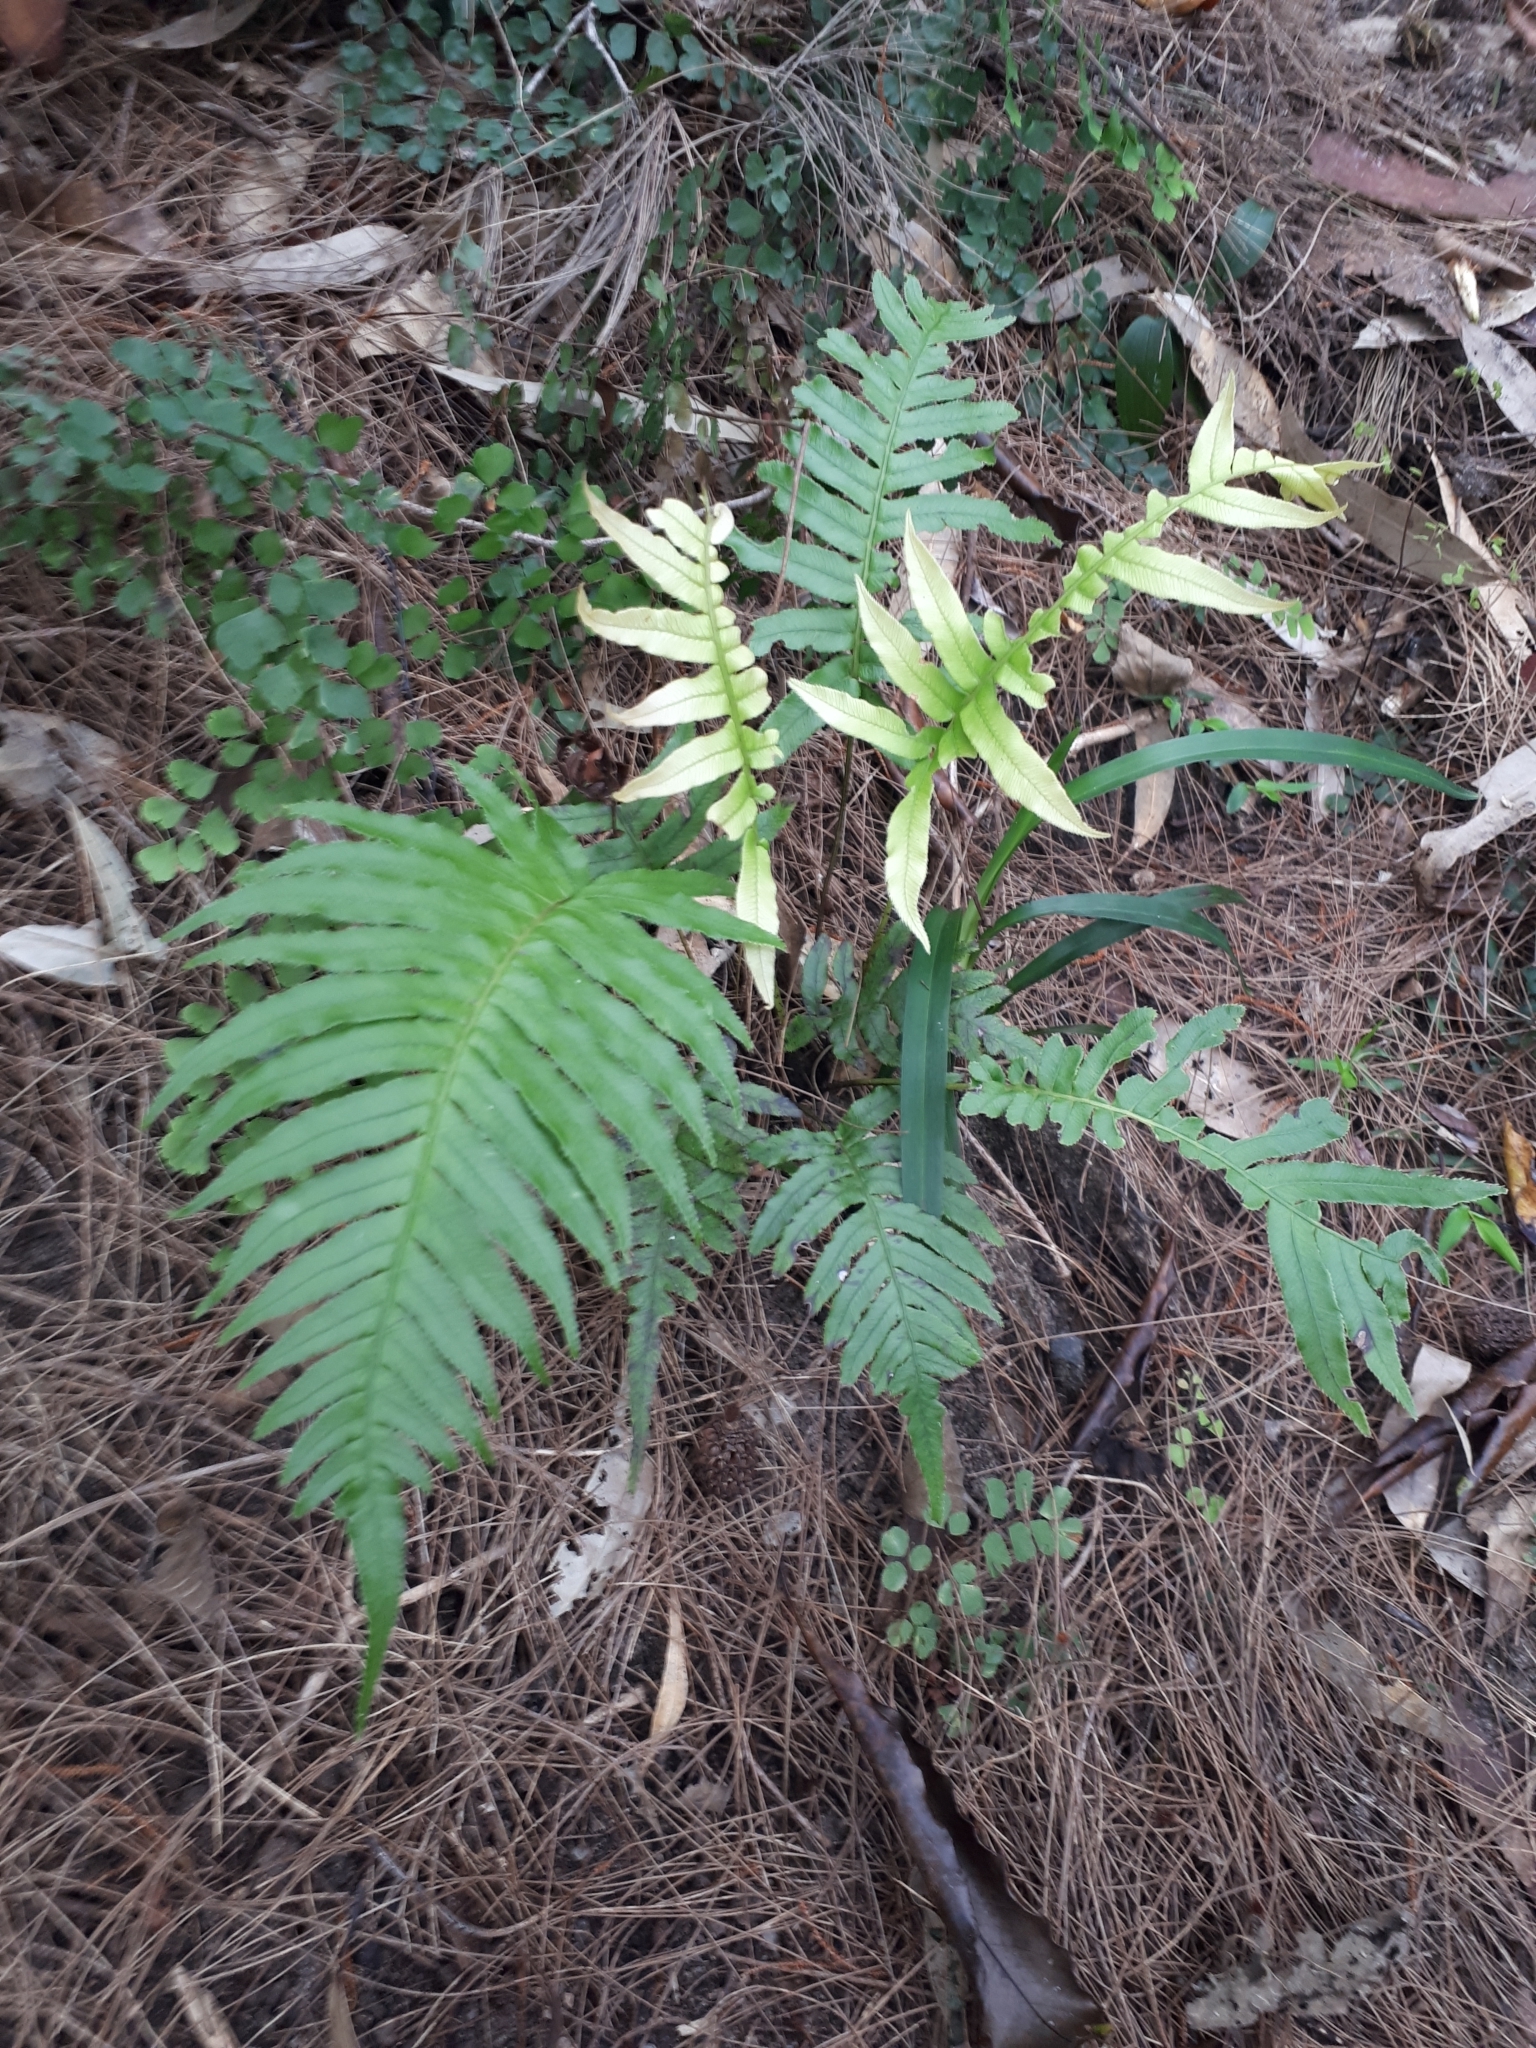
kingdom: Plantae
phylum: Tracheophyta
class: Polypodiopsida
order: Polypodiales
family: Blechnaceae
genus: Oceaniopteris
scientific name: Oceaniopteris cartilaginea
